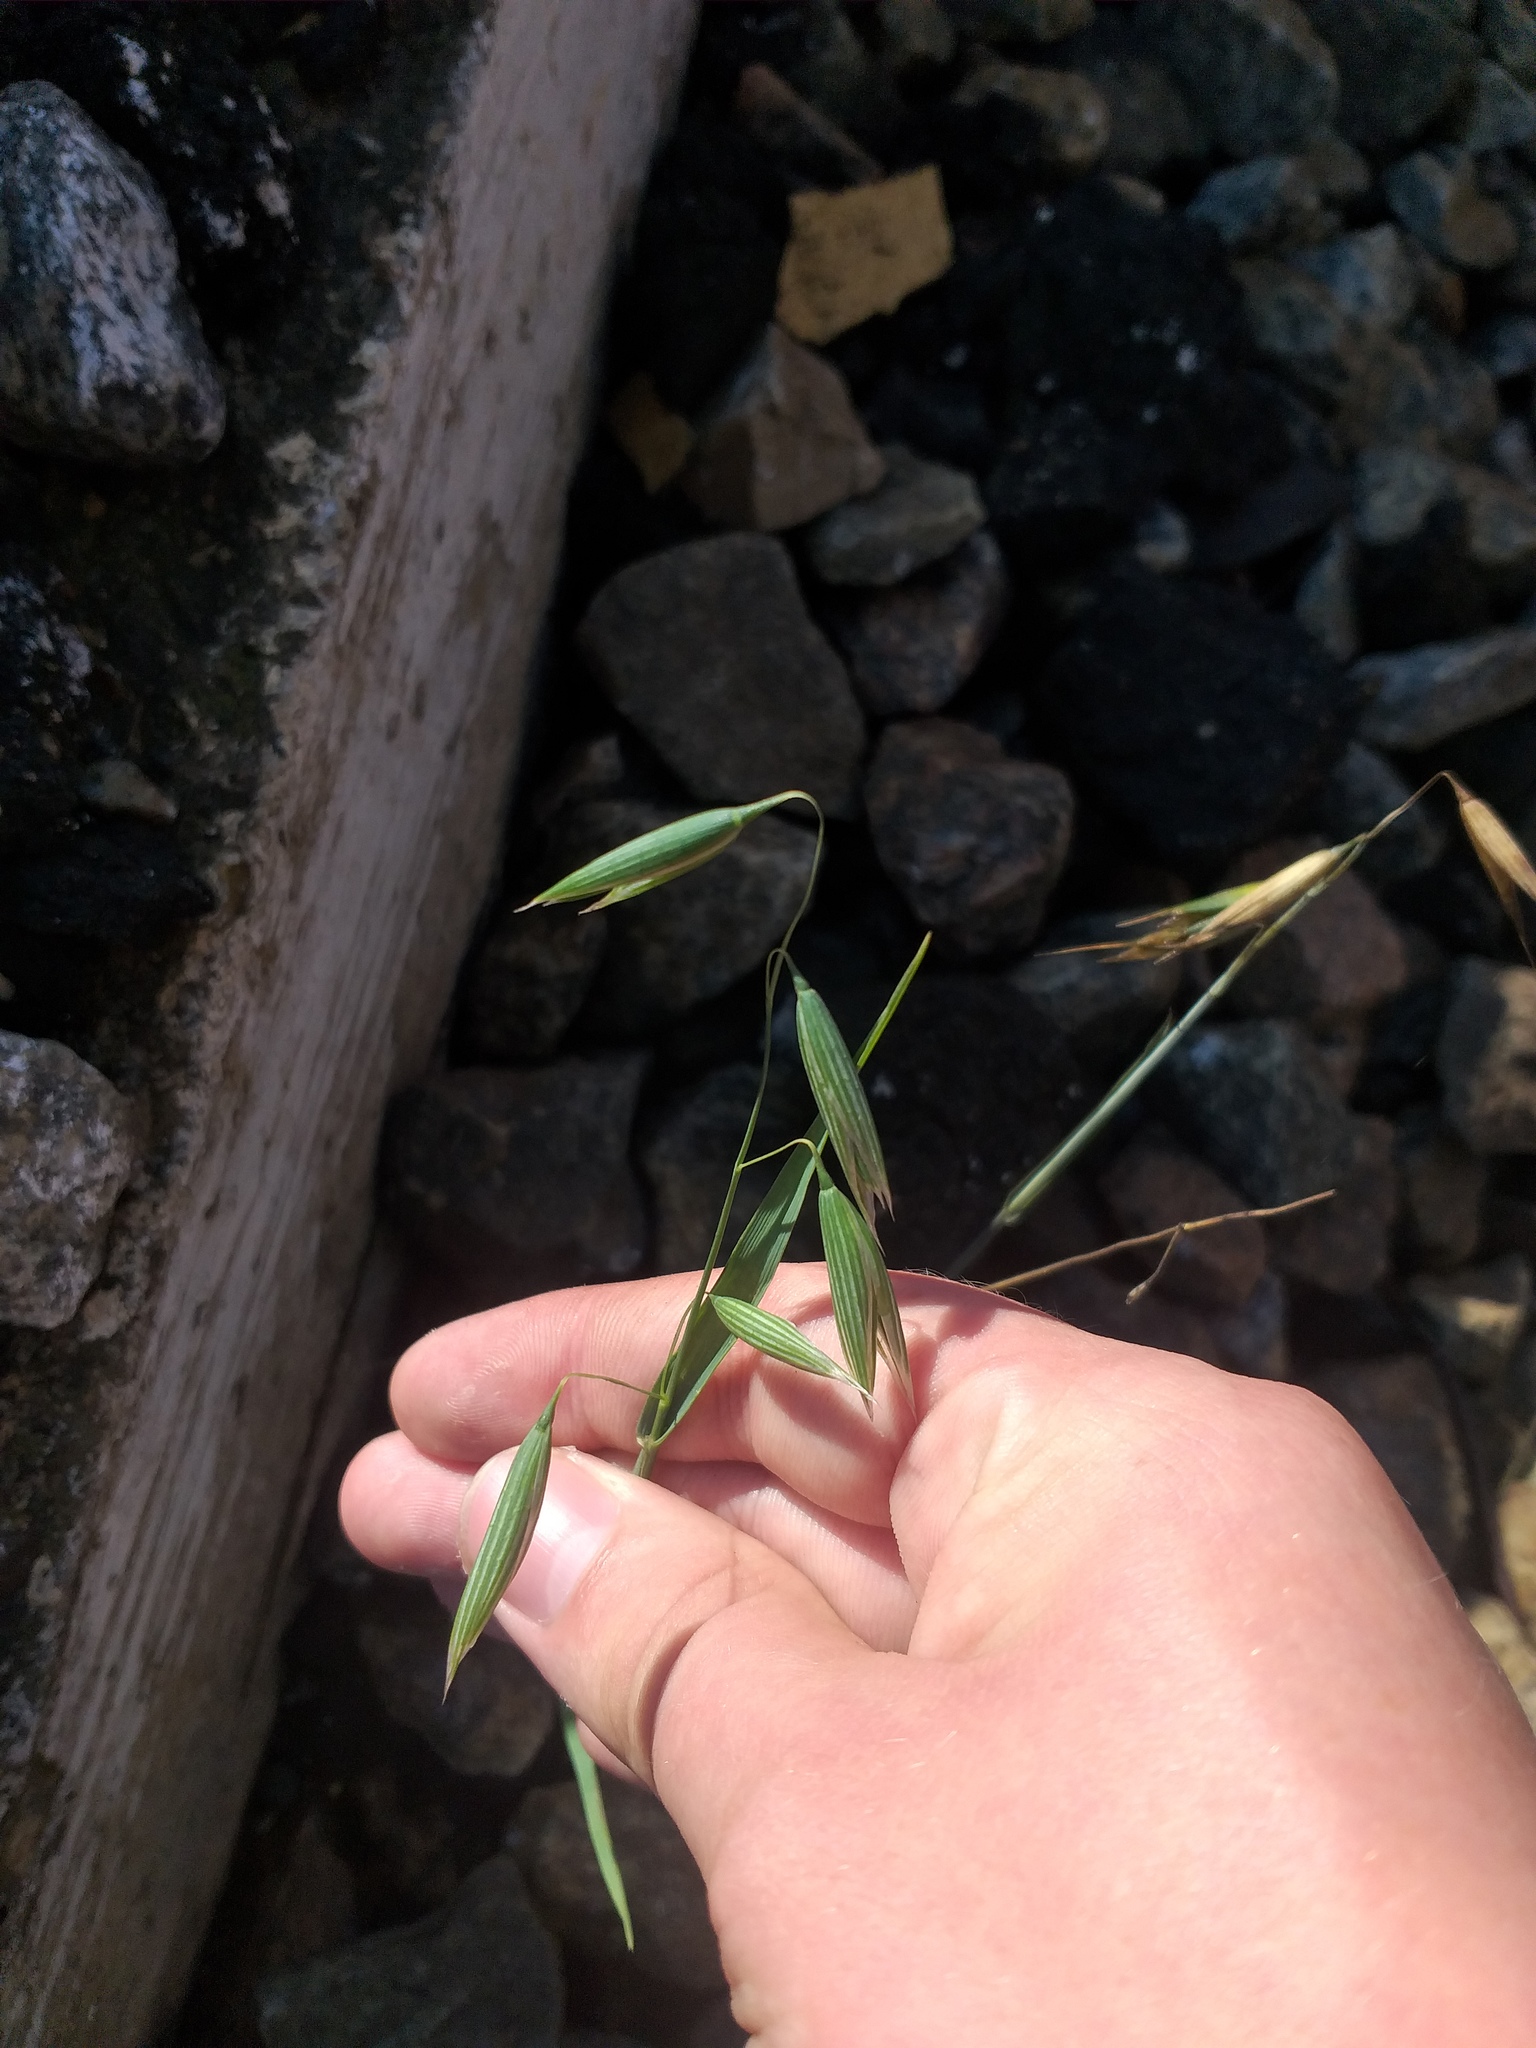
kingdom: Plantae
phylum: Tracheophyta
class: Liliopsida
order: Poales
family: Poaceae
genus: Avena
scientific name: Avena sativa
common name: Oat
